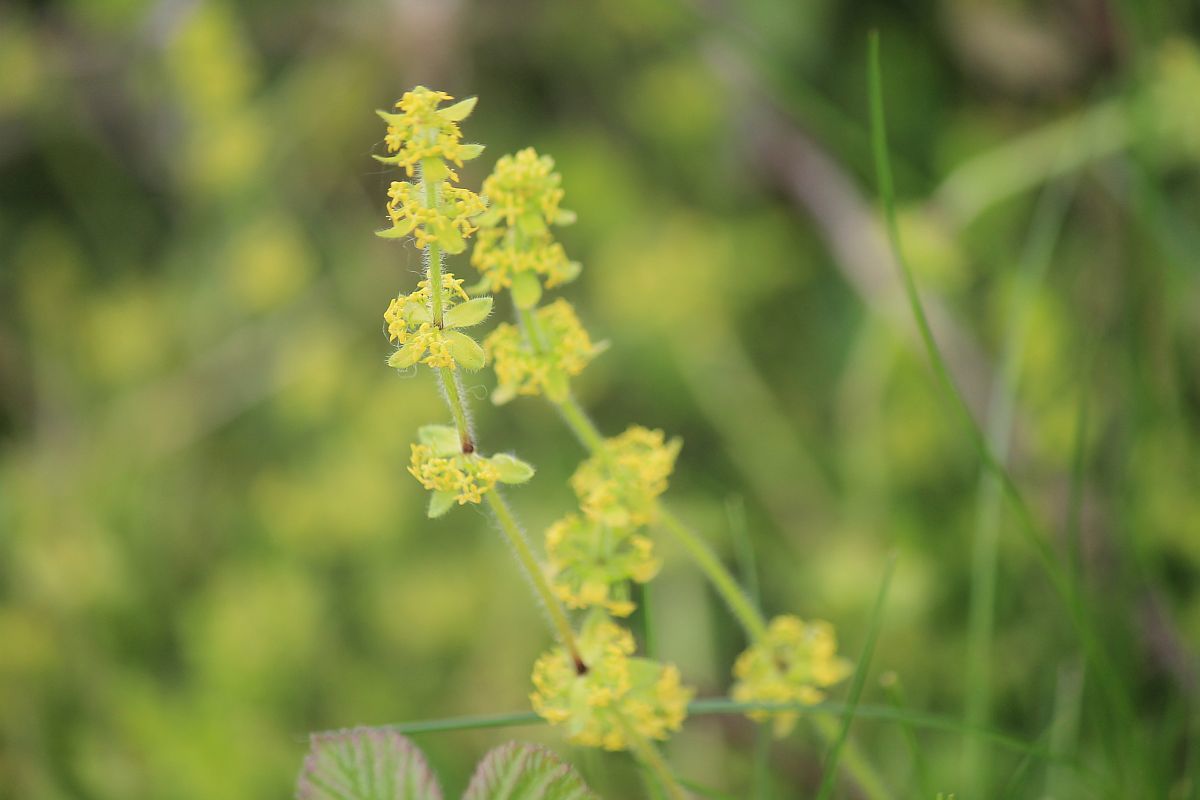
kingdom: Plantae
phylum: Tracheophyta
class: Magnoliopsida
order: Gentianales
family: Rubiaceae
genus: Cruciata
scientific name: Cruciata laevipes
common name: Crosswort
